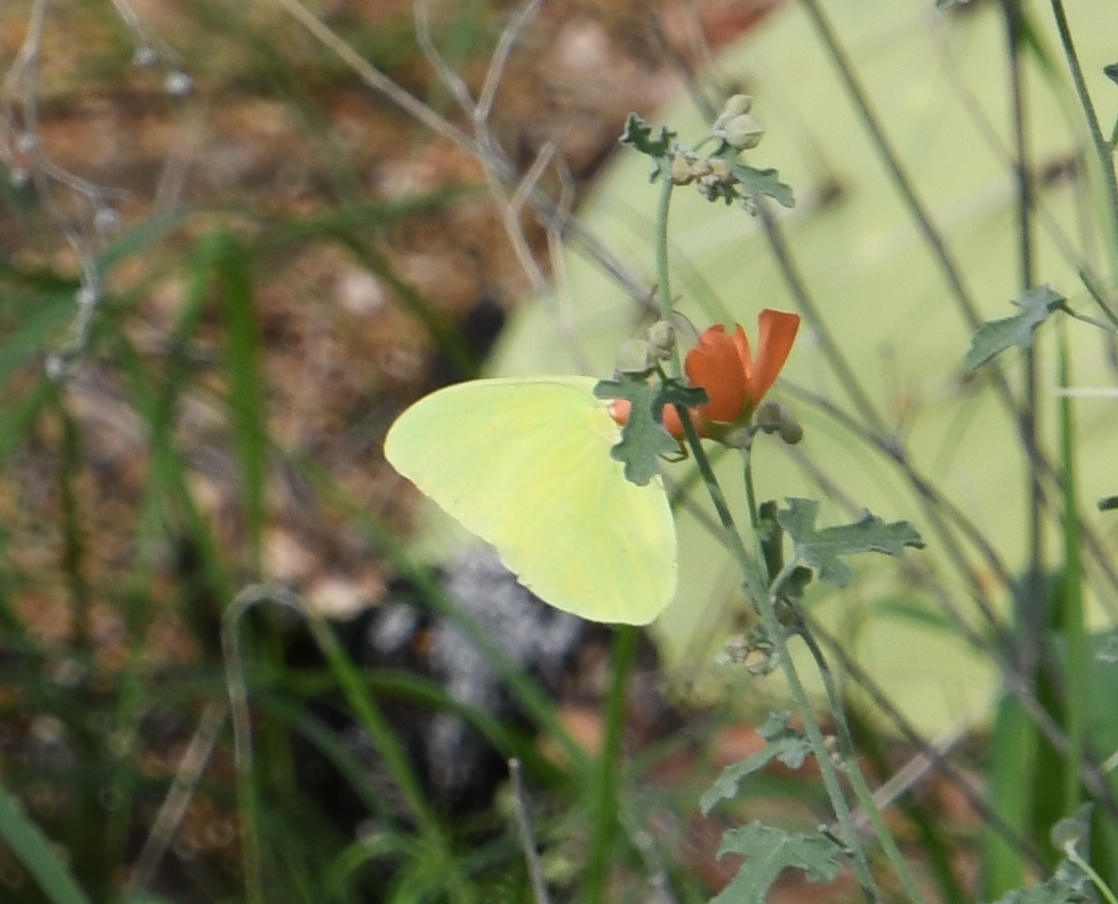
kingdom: Animalia
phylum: Arthropoda
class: Insecta
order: Lepidoptera
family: Pieridae
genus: Phoebis
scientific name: Phoebis sennae
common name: Cloudless sulphur
